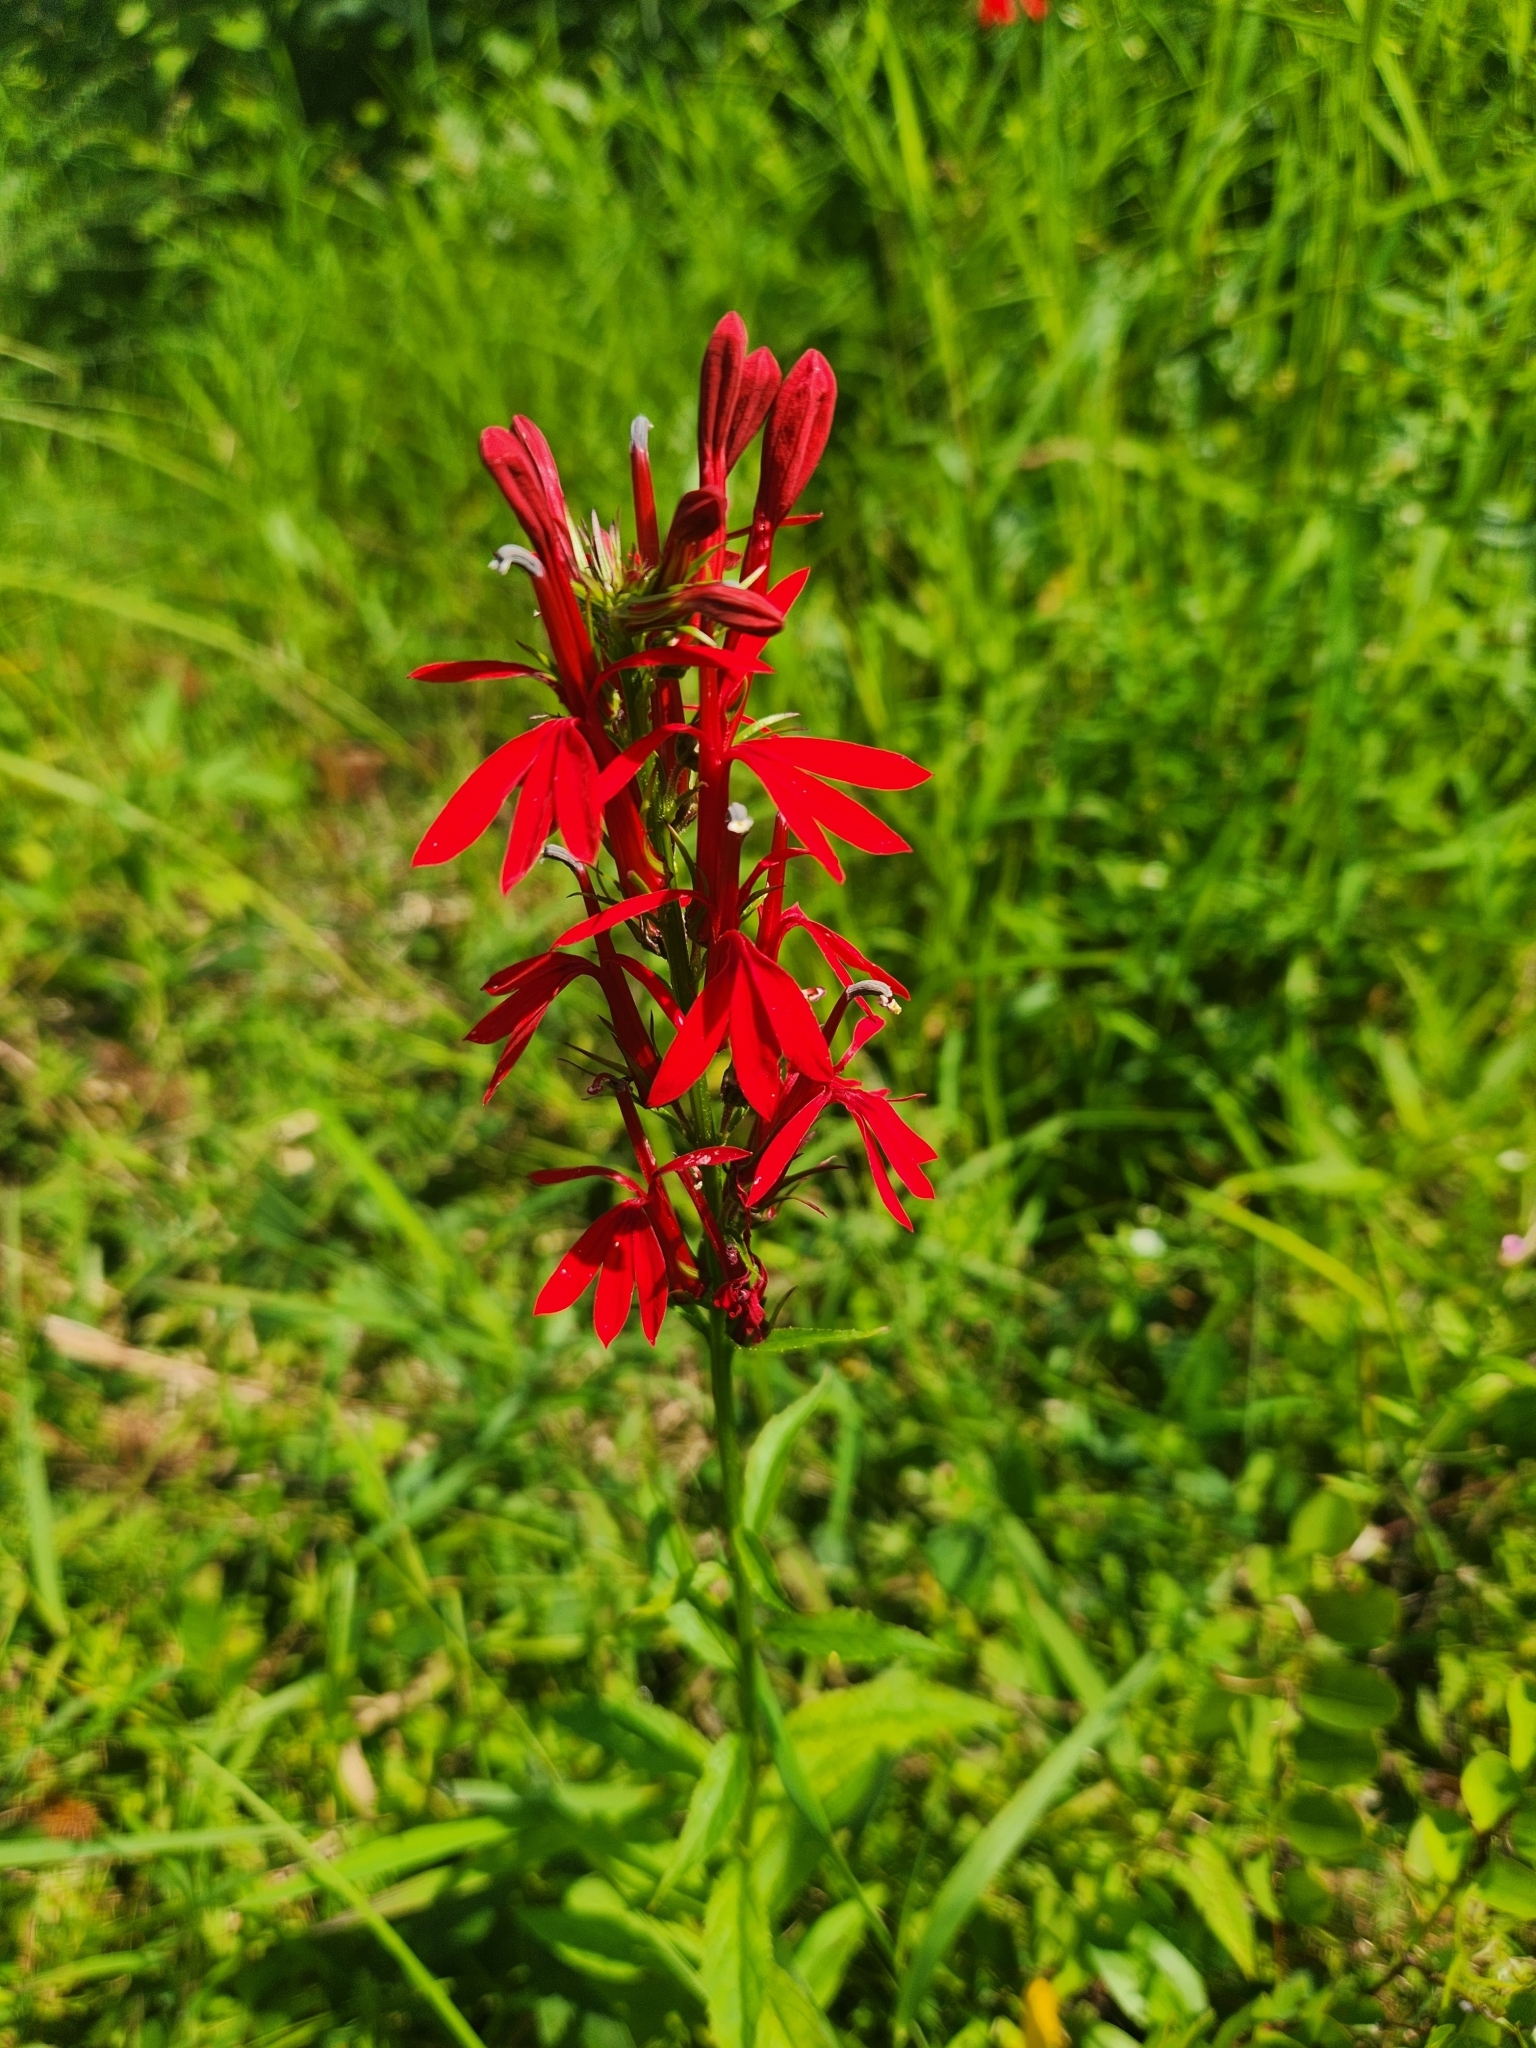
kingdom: Plantae
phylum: Tracheophyta
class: Magnoliopsida
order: Asterales
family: Campanulaceae
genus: Lobelia
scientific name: Lobelia cardinalis
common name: Cardinal flower
